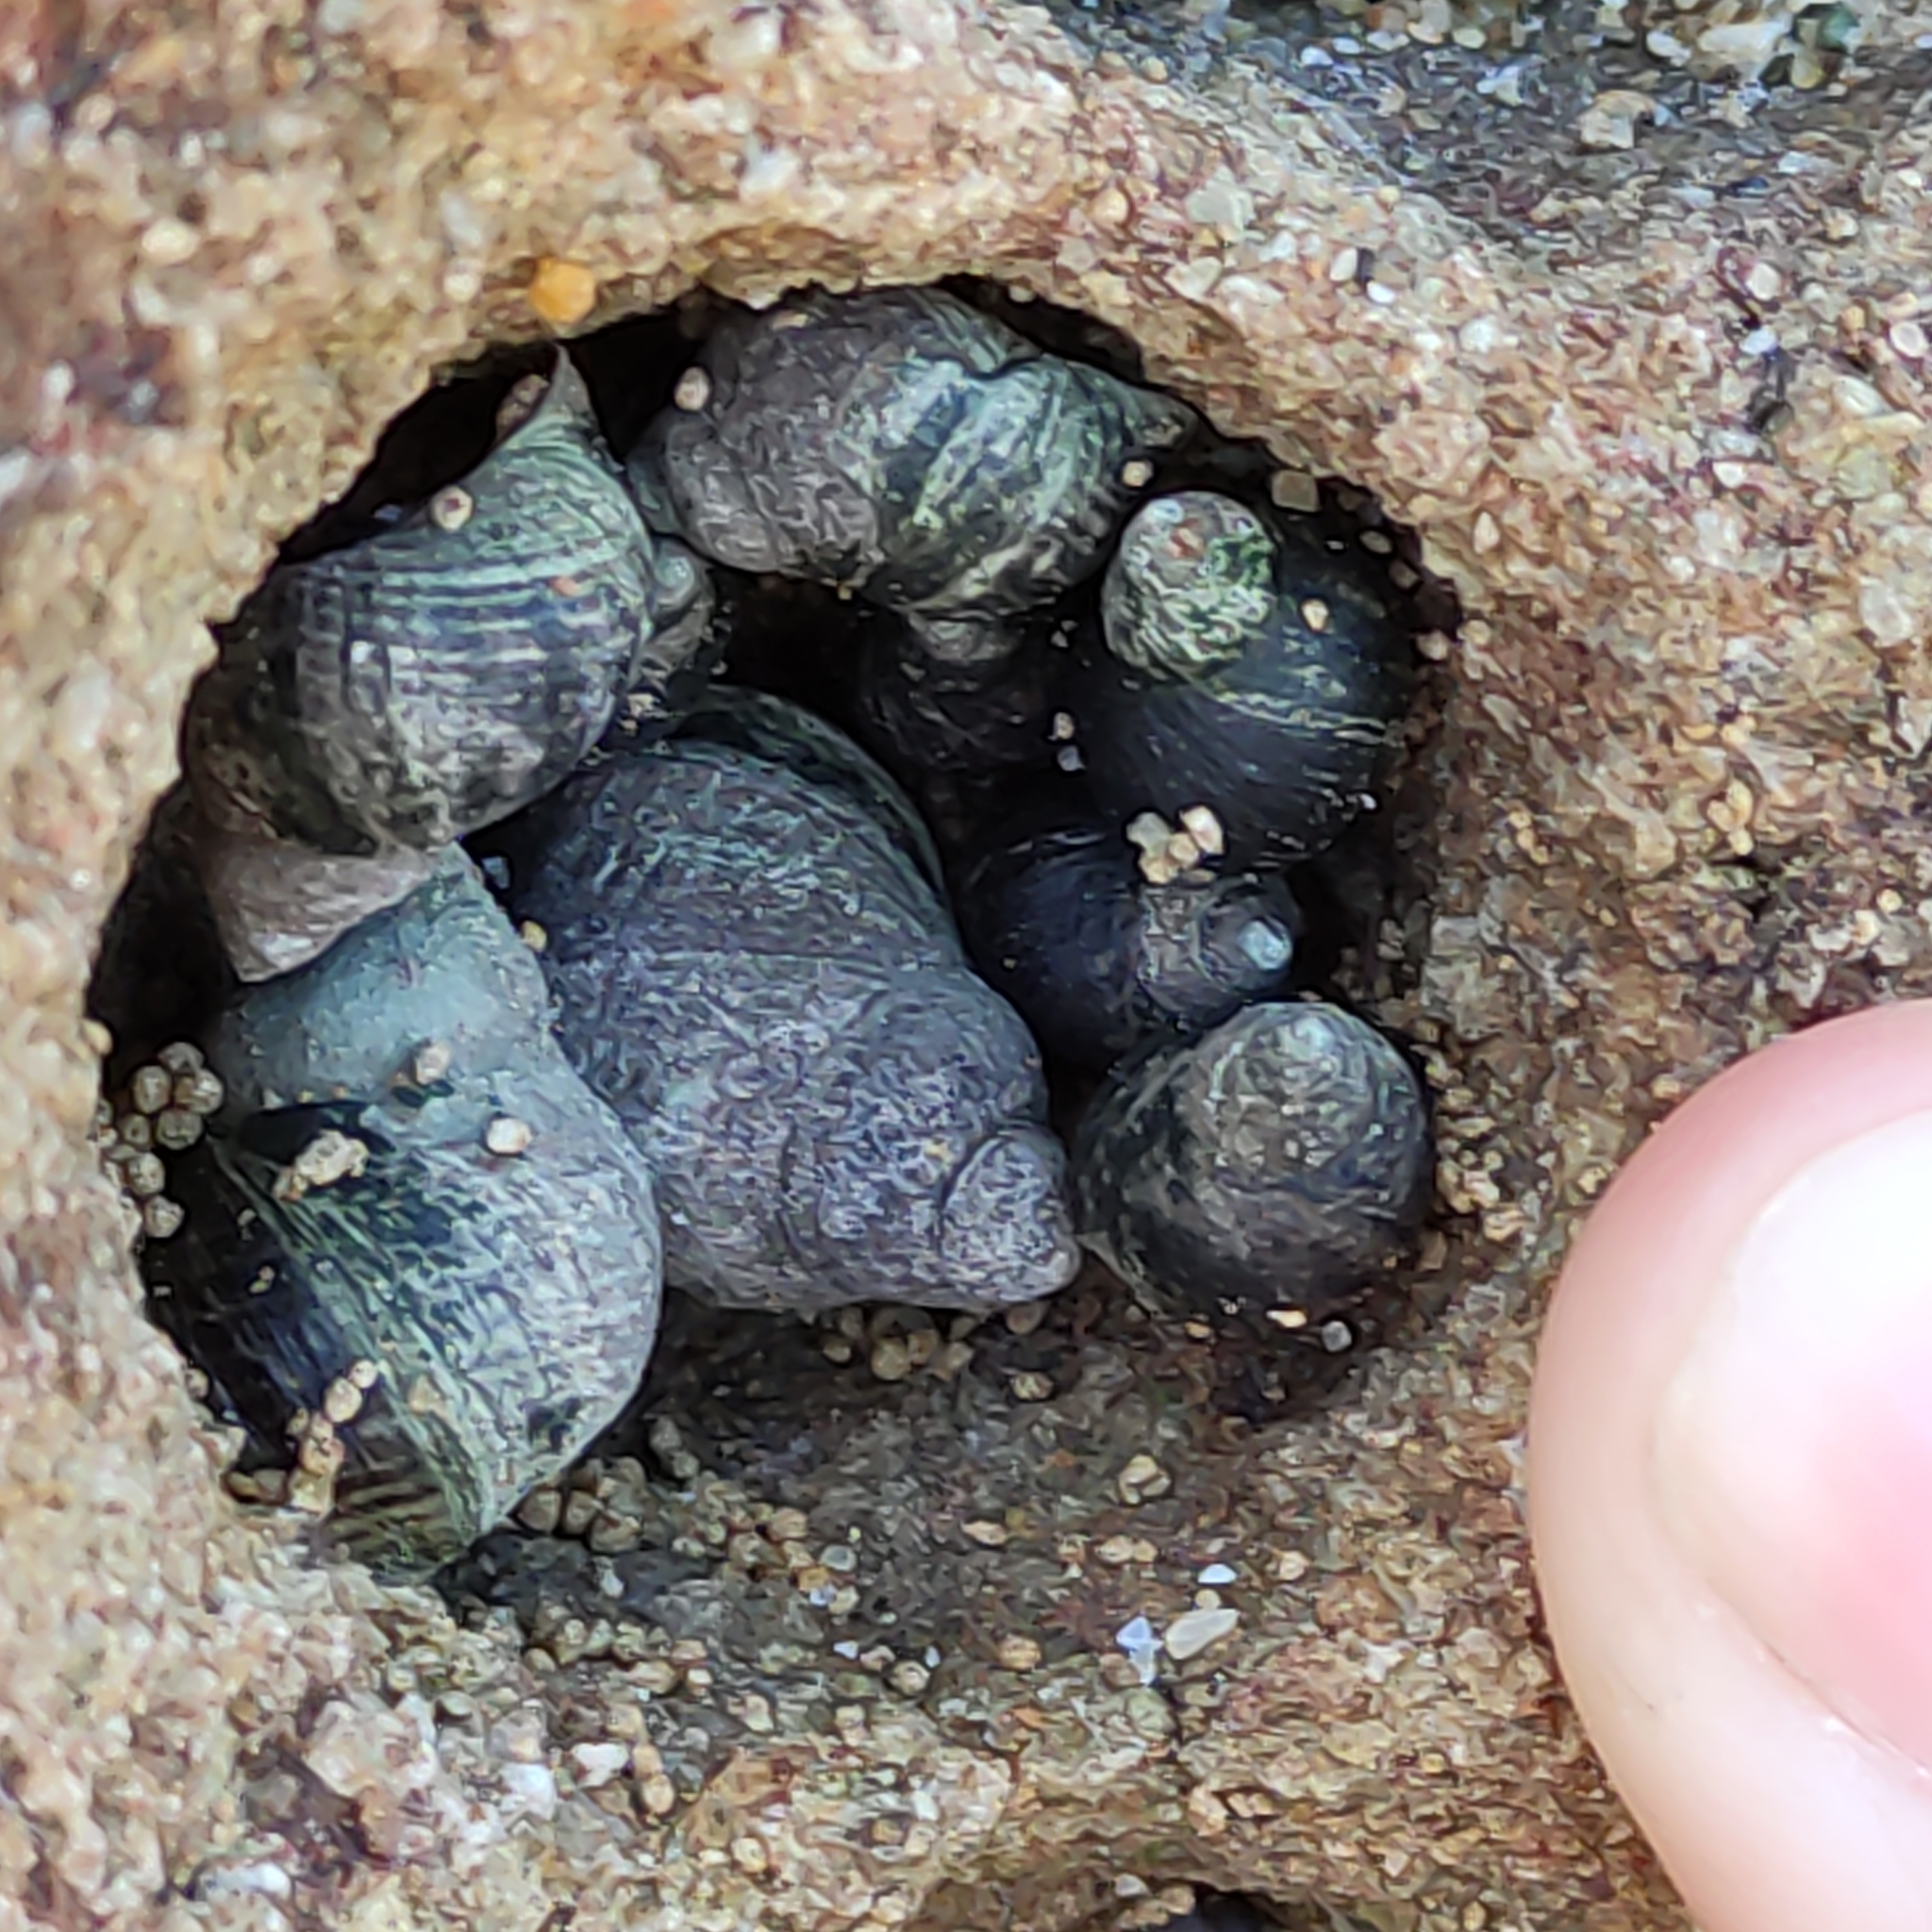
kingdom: Animalia
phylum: Mollusca
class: Gastropoda
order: Littorinimorpha
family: Littorinidae
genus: Austrolittorina
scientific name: Austrolittorina cincta
